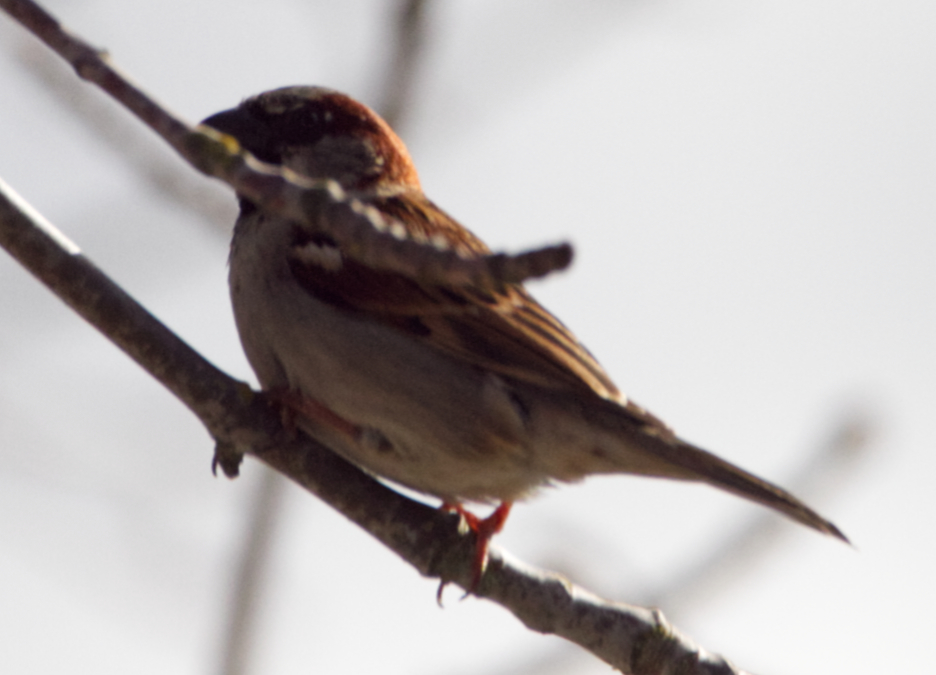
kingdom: Animalia
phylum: Chordata
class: Aves
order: Passeriformes
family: Passeridae
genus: Passer
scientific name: Passer domesticus
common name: House sparrow
